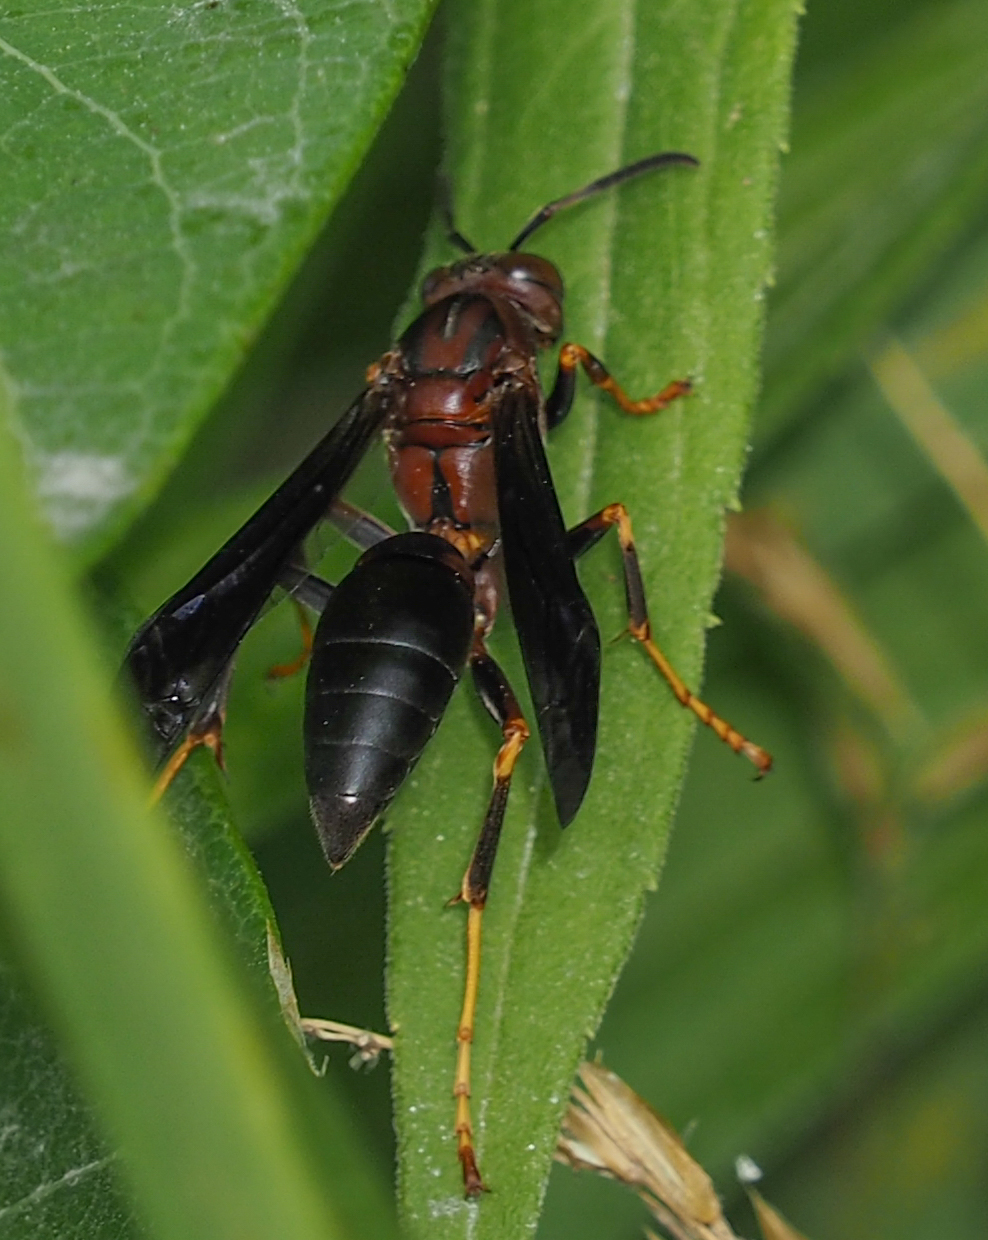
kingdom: Animalia
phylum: Arthropoda
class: Insecta
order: Hymenoptera
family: Eumenidae
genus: Polistes
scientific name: Polistes metricus
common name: Metric paper wasp
